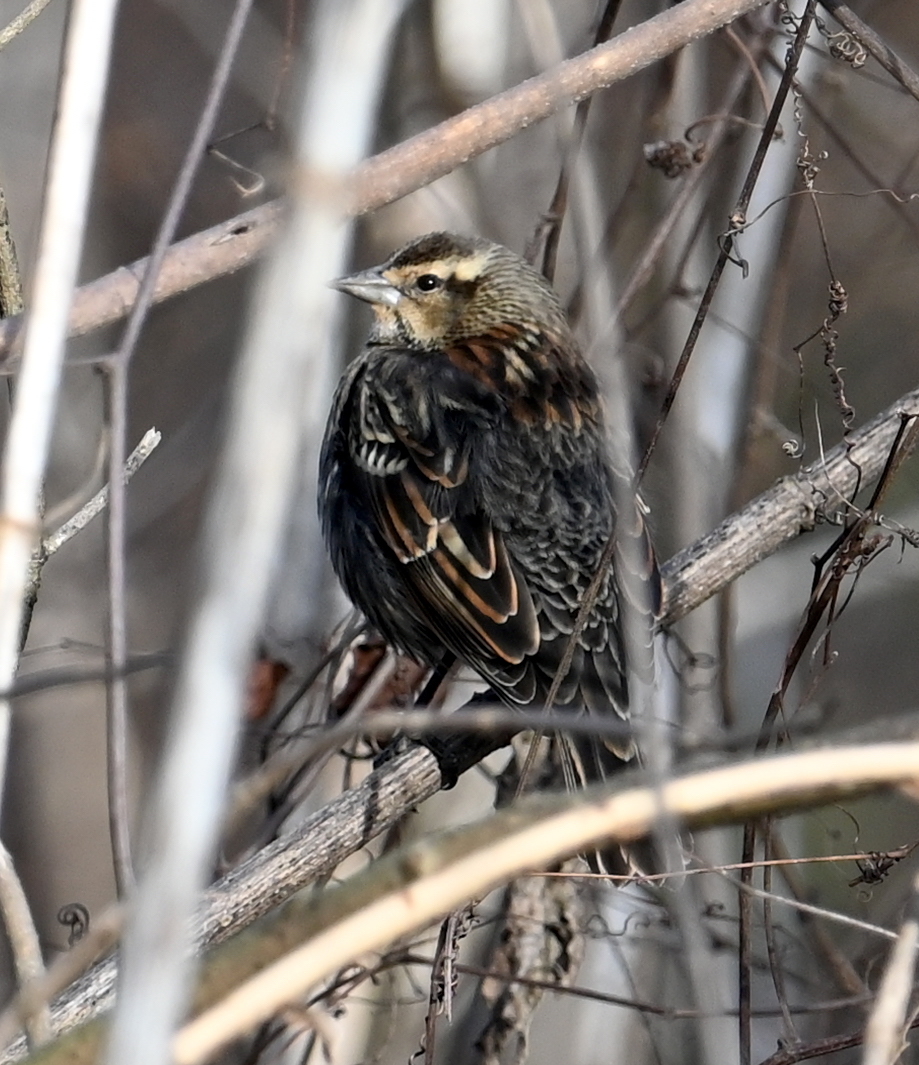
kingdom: Animalia
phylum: Chordata
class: Aves
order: Passeriformes
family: Icteridae
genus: Agelaius
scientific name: Agelaius phoeniceus
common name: Red-winged blackbird
